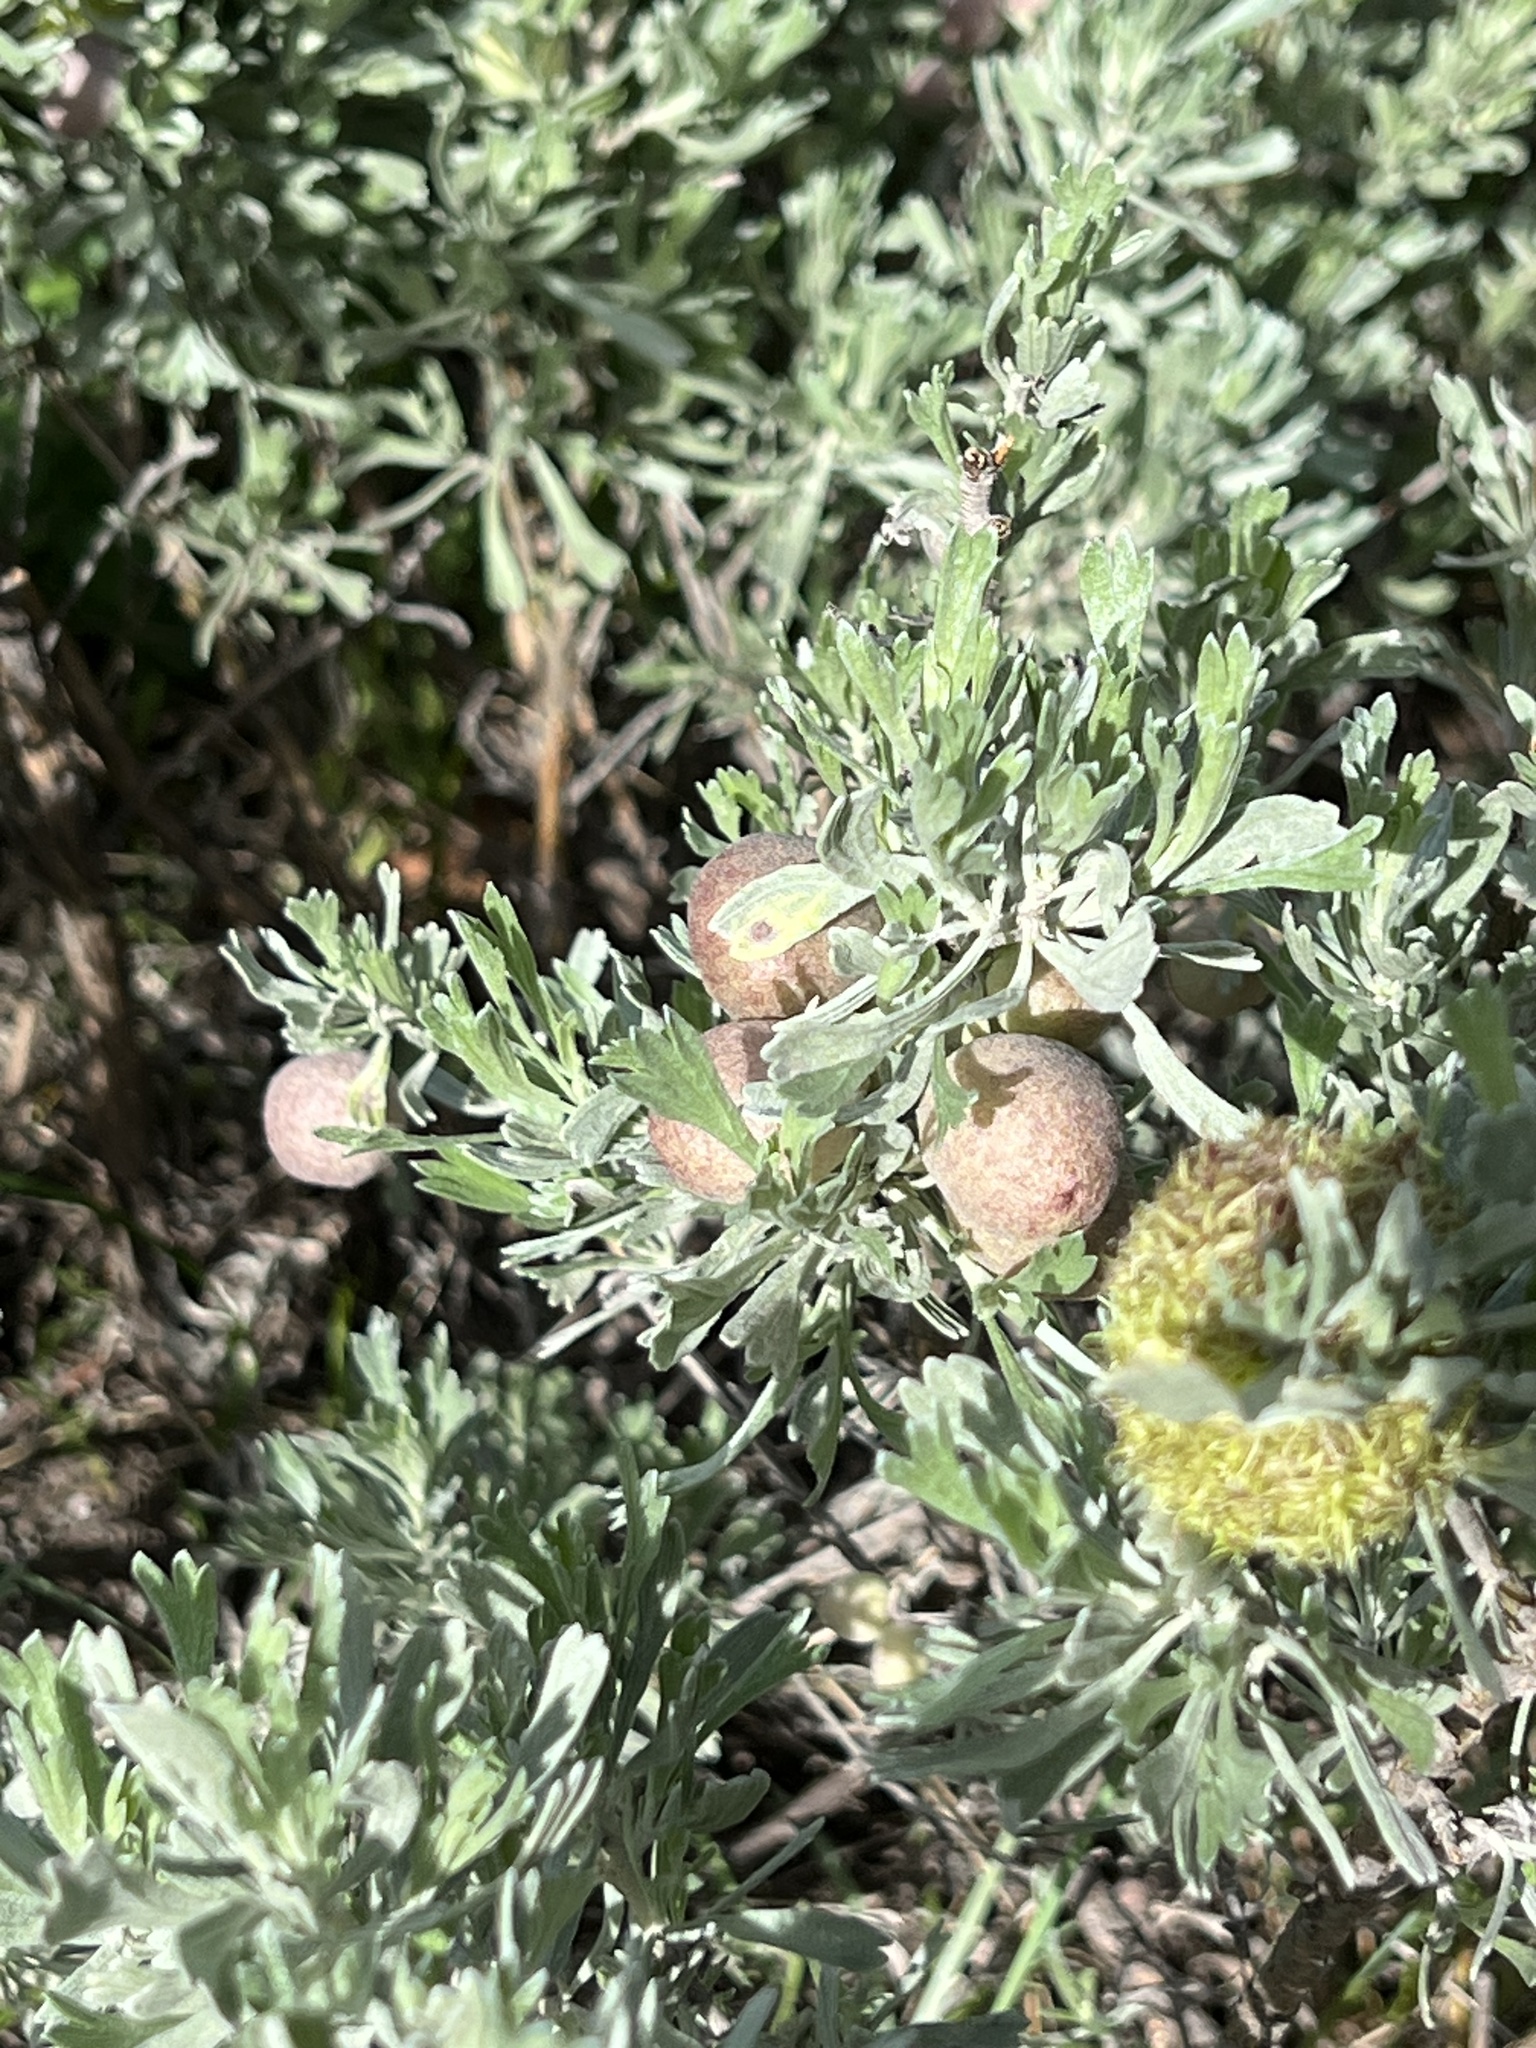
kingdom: Animalia
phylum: Arthropoda
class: Insecta
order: Diptera
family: Cecidomyiidae
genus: Rhopalomyia
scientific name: Rhopalomyia pomum
